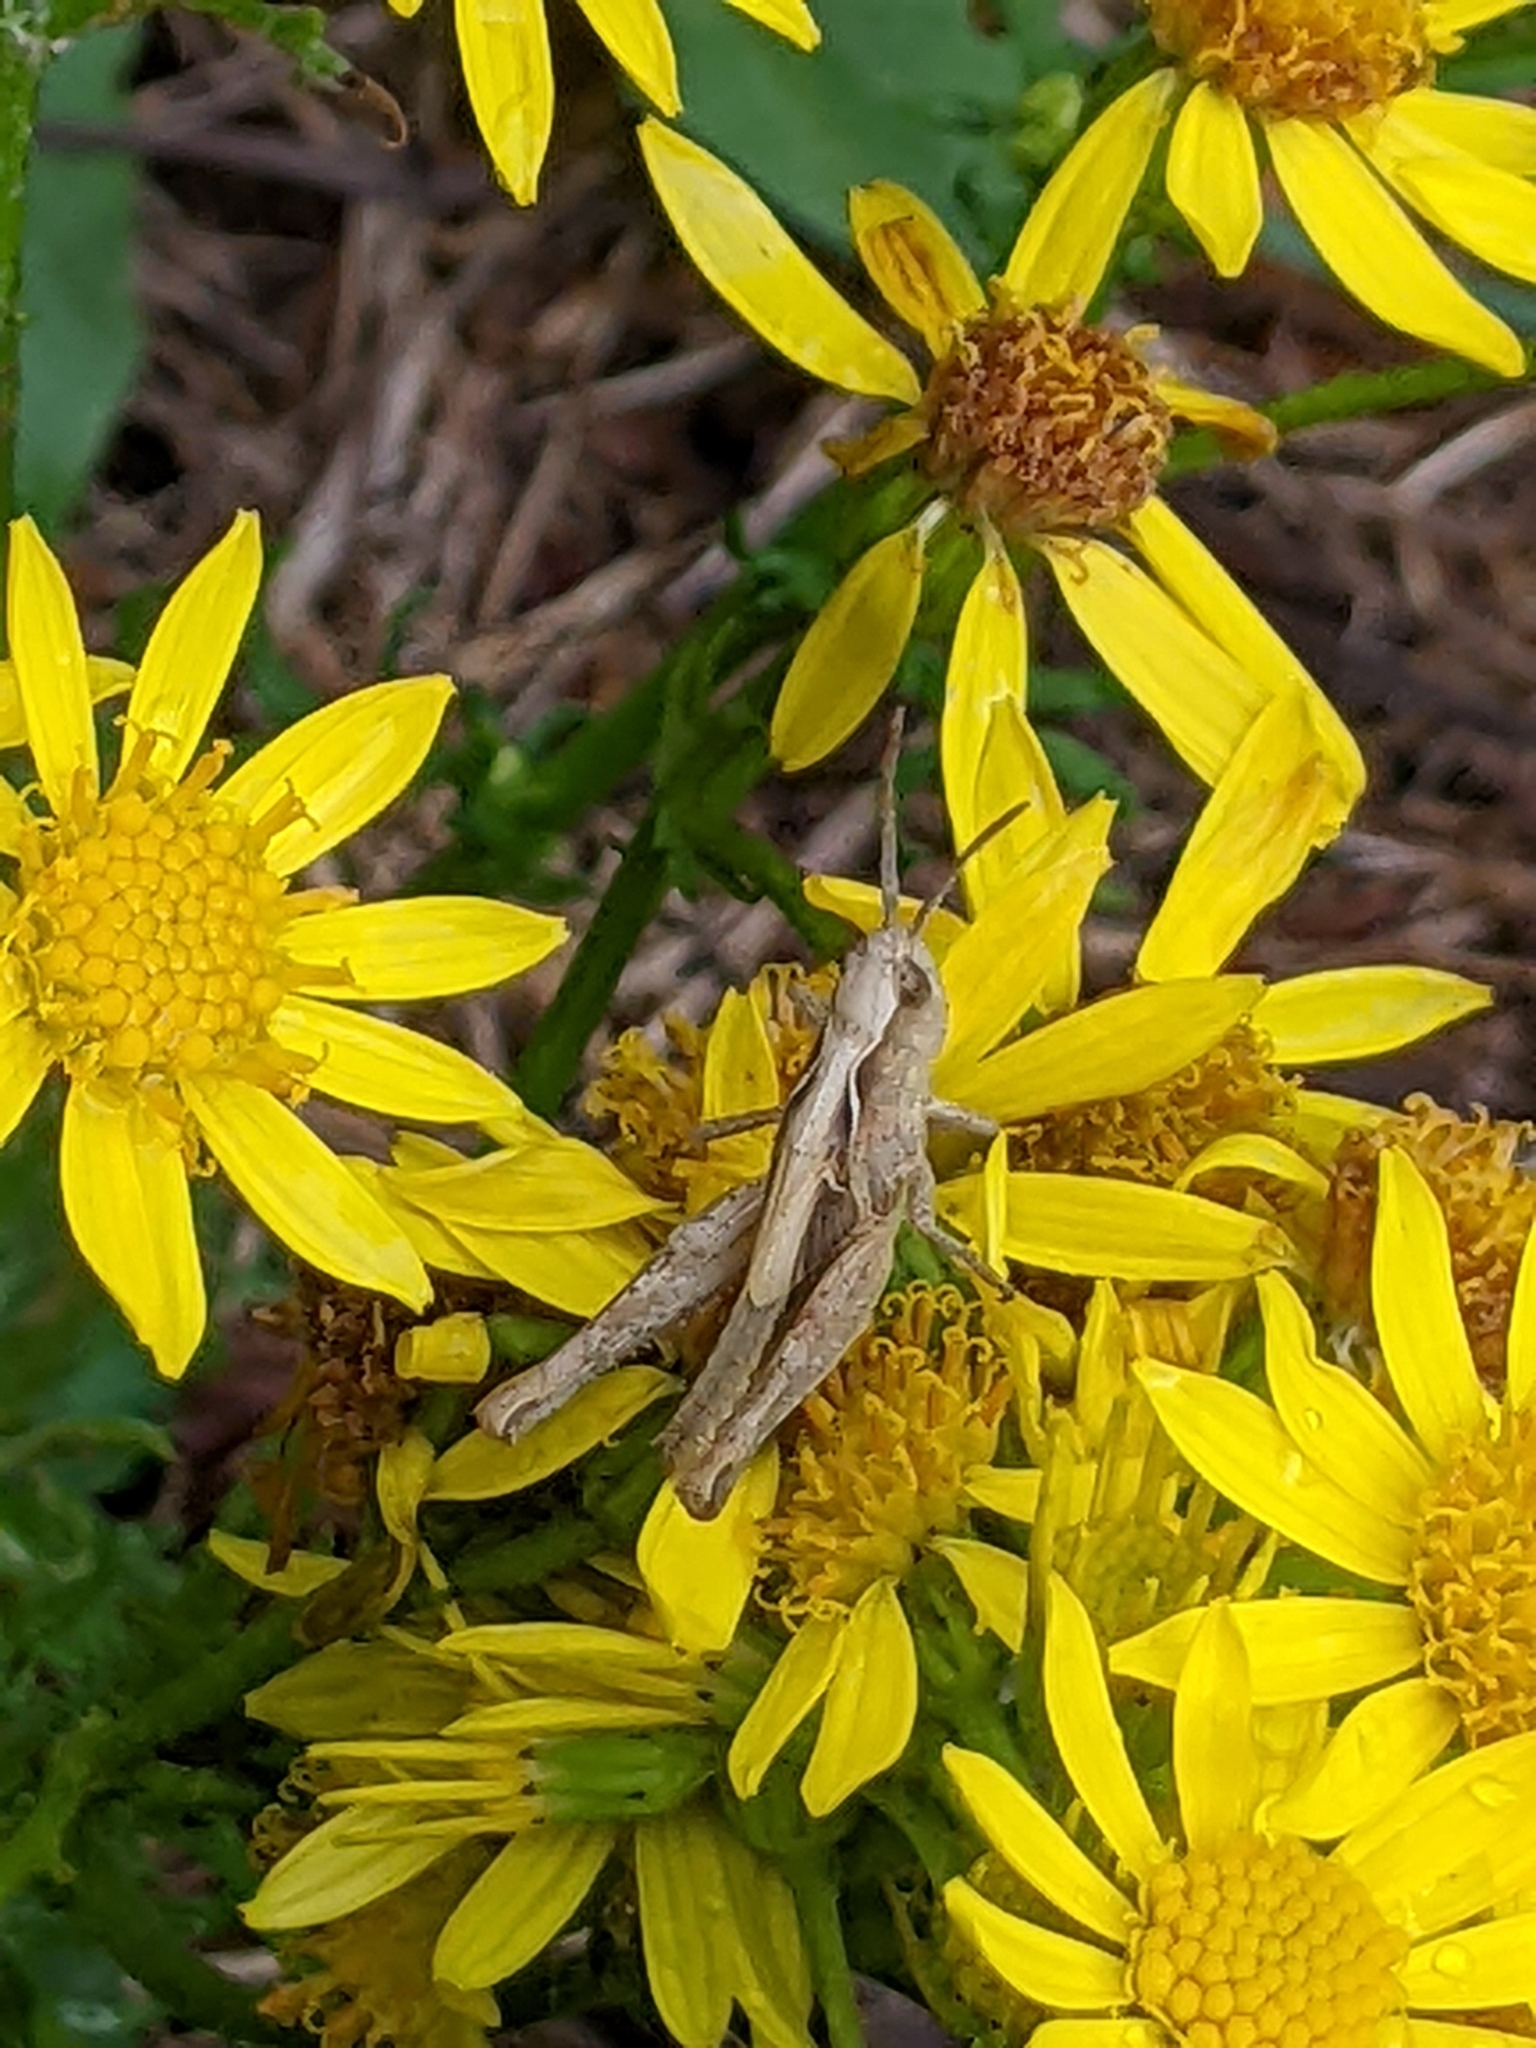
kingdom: Animalia
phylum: Arthropoda
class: Insecta
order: Orthoptera
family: Acrididae
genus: Chorthippus
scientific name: Chorthippus brunneus
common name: Field grasshopper
